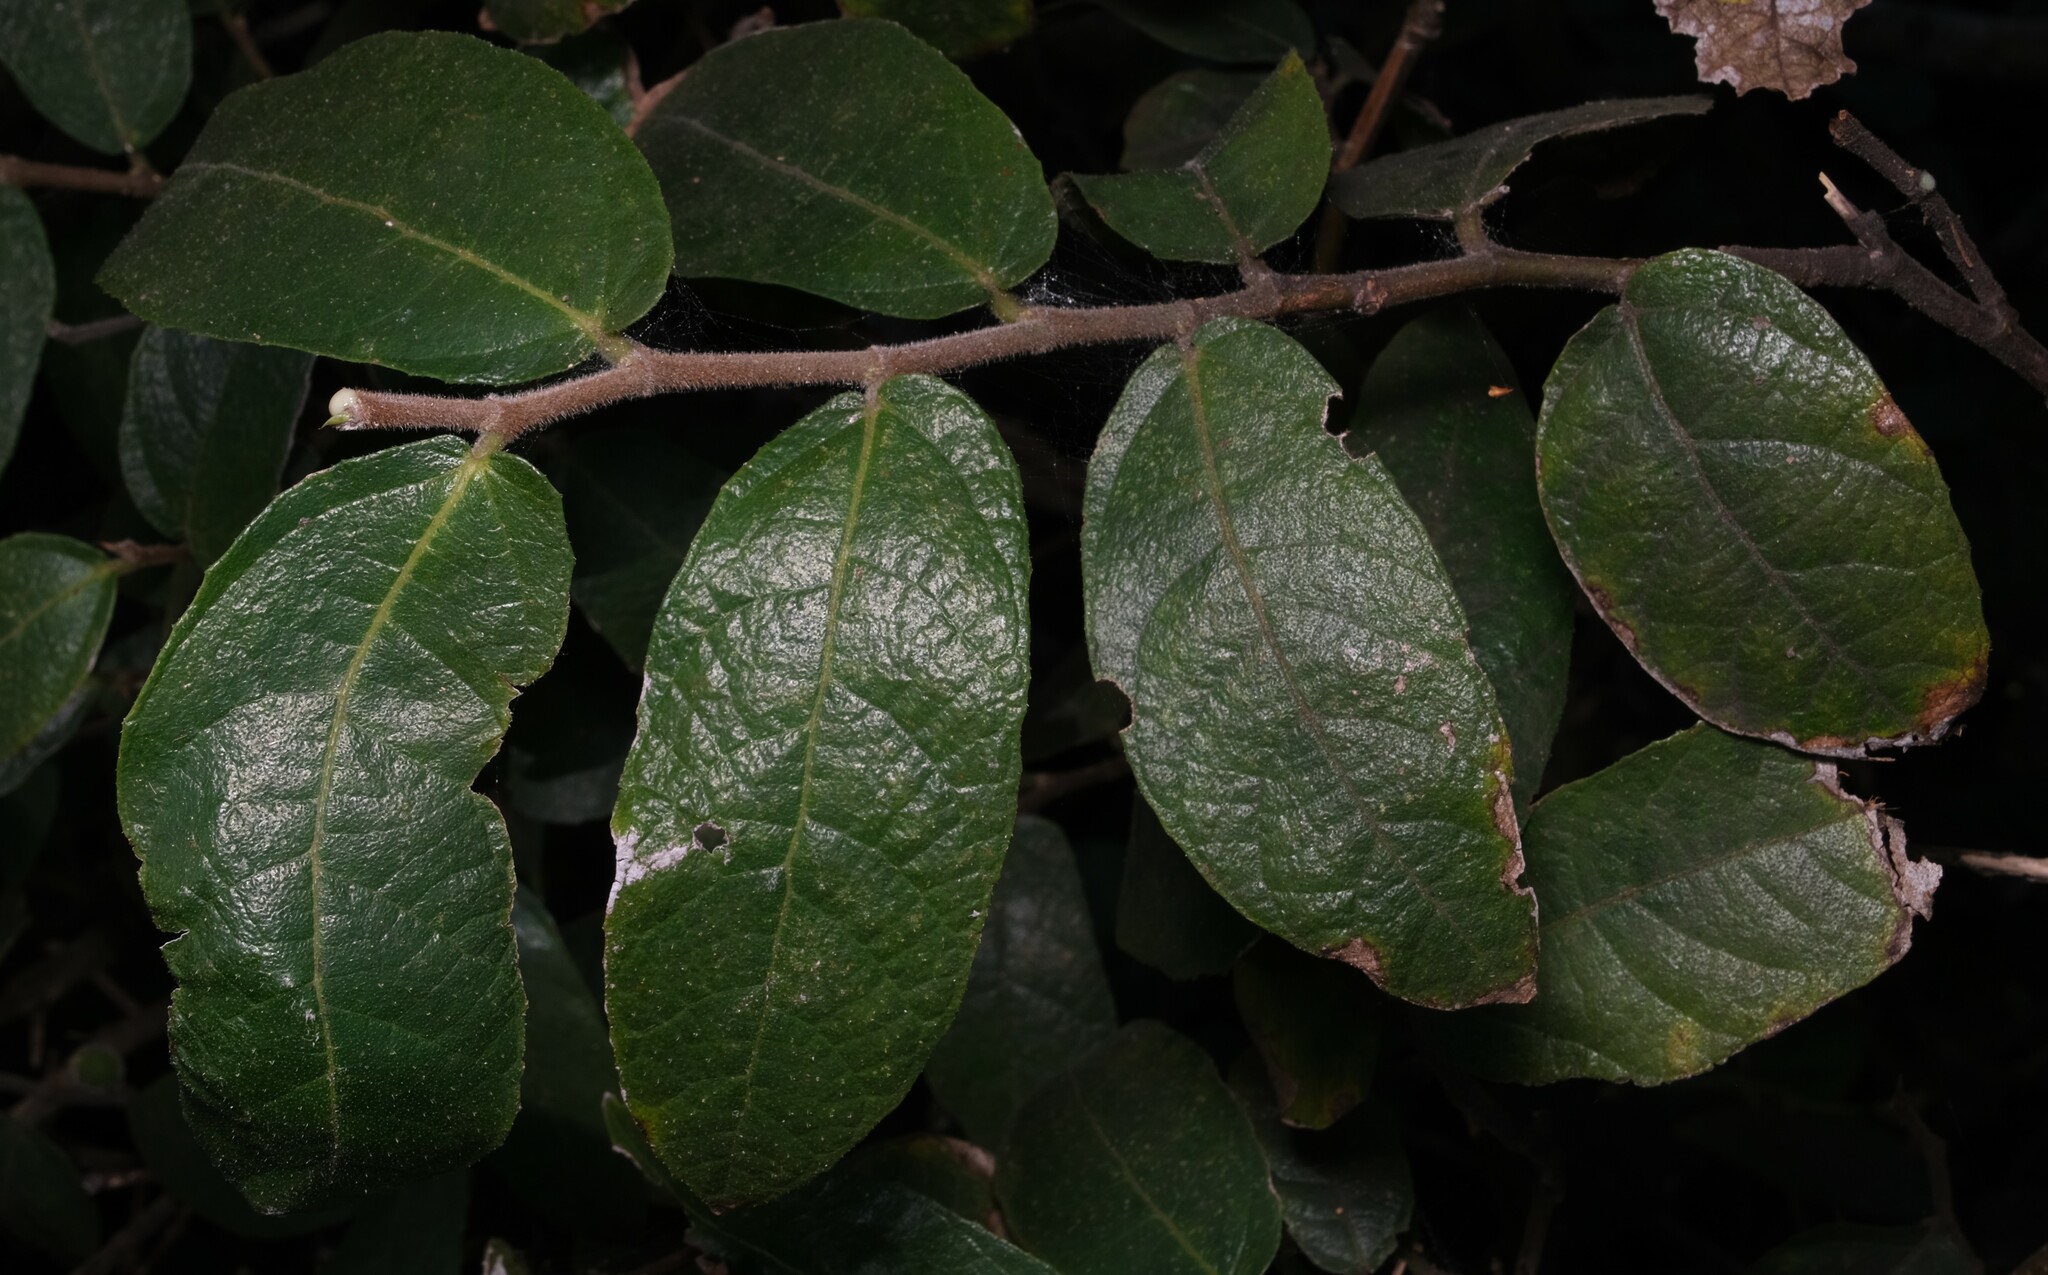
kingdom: Plantae
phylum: Tracheophyta
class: Magnoliopsida
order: Rosales
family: Moraceae
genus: Ficus
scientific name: Ficus coronata
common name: Creek sandpaper fig
